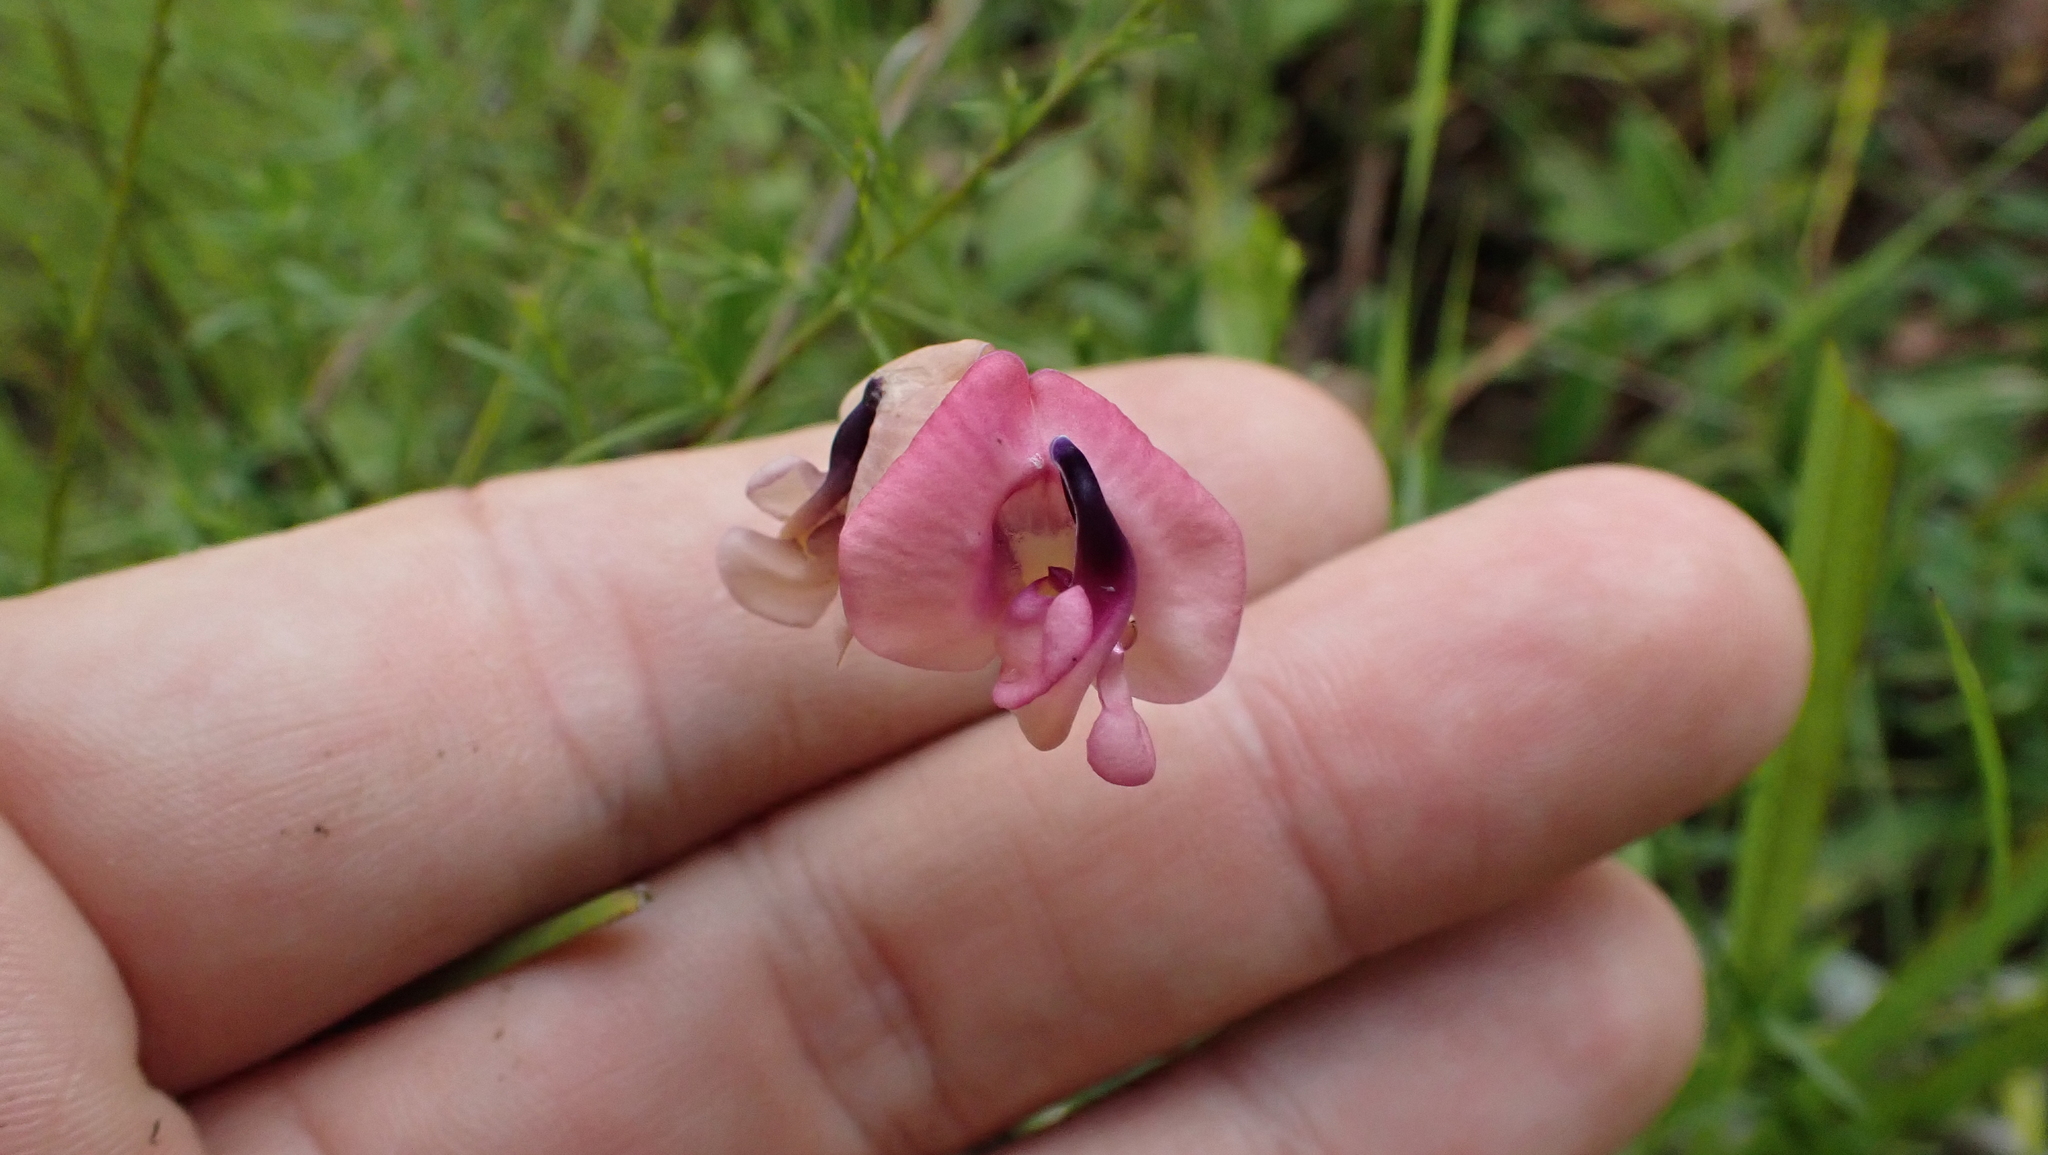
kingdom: Plantae
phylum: Tracheophyta
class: Magnoliopsida
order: Fabales
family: Fabaceae
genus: Strophostyles
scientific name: Strophostyles umbellata
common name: Perennial wild bean
